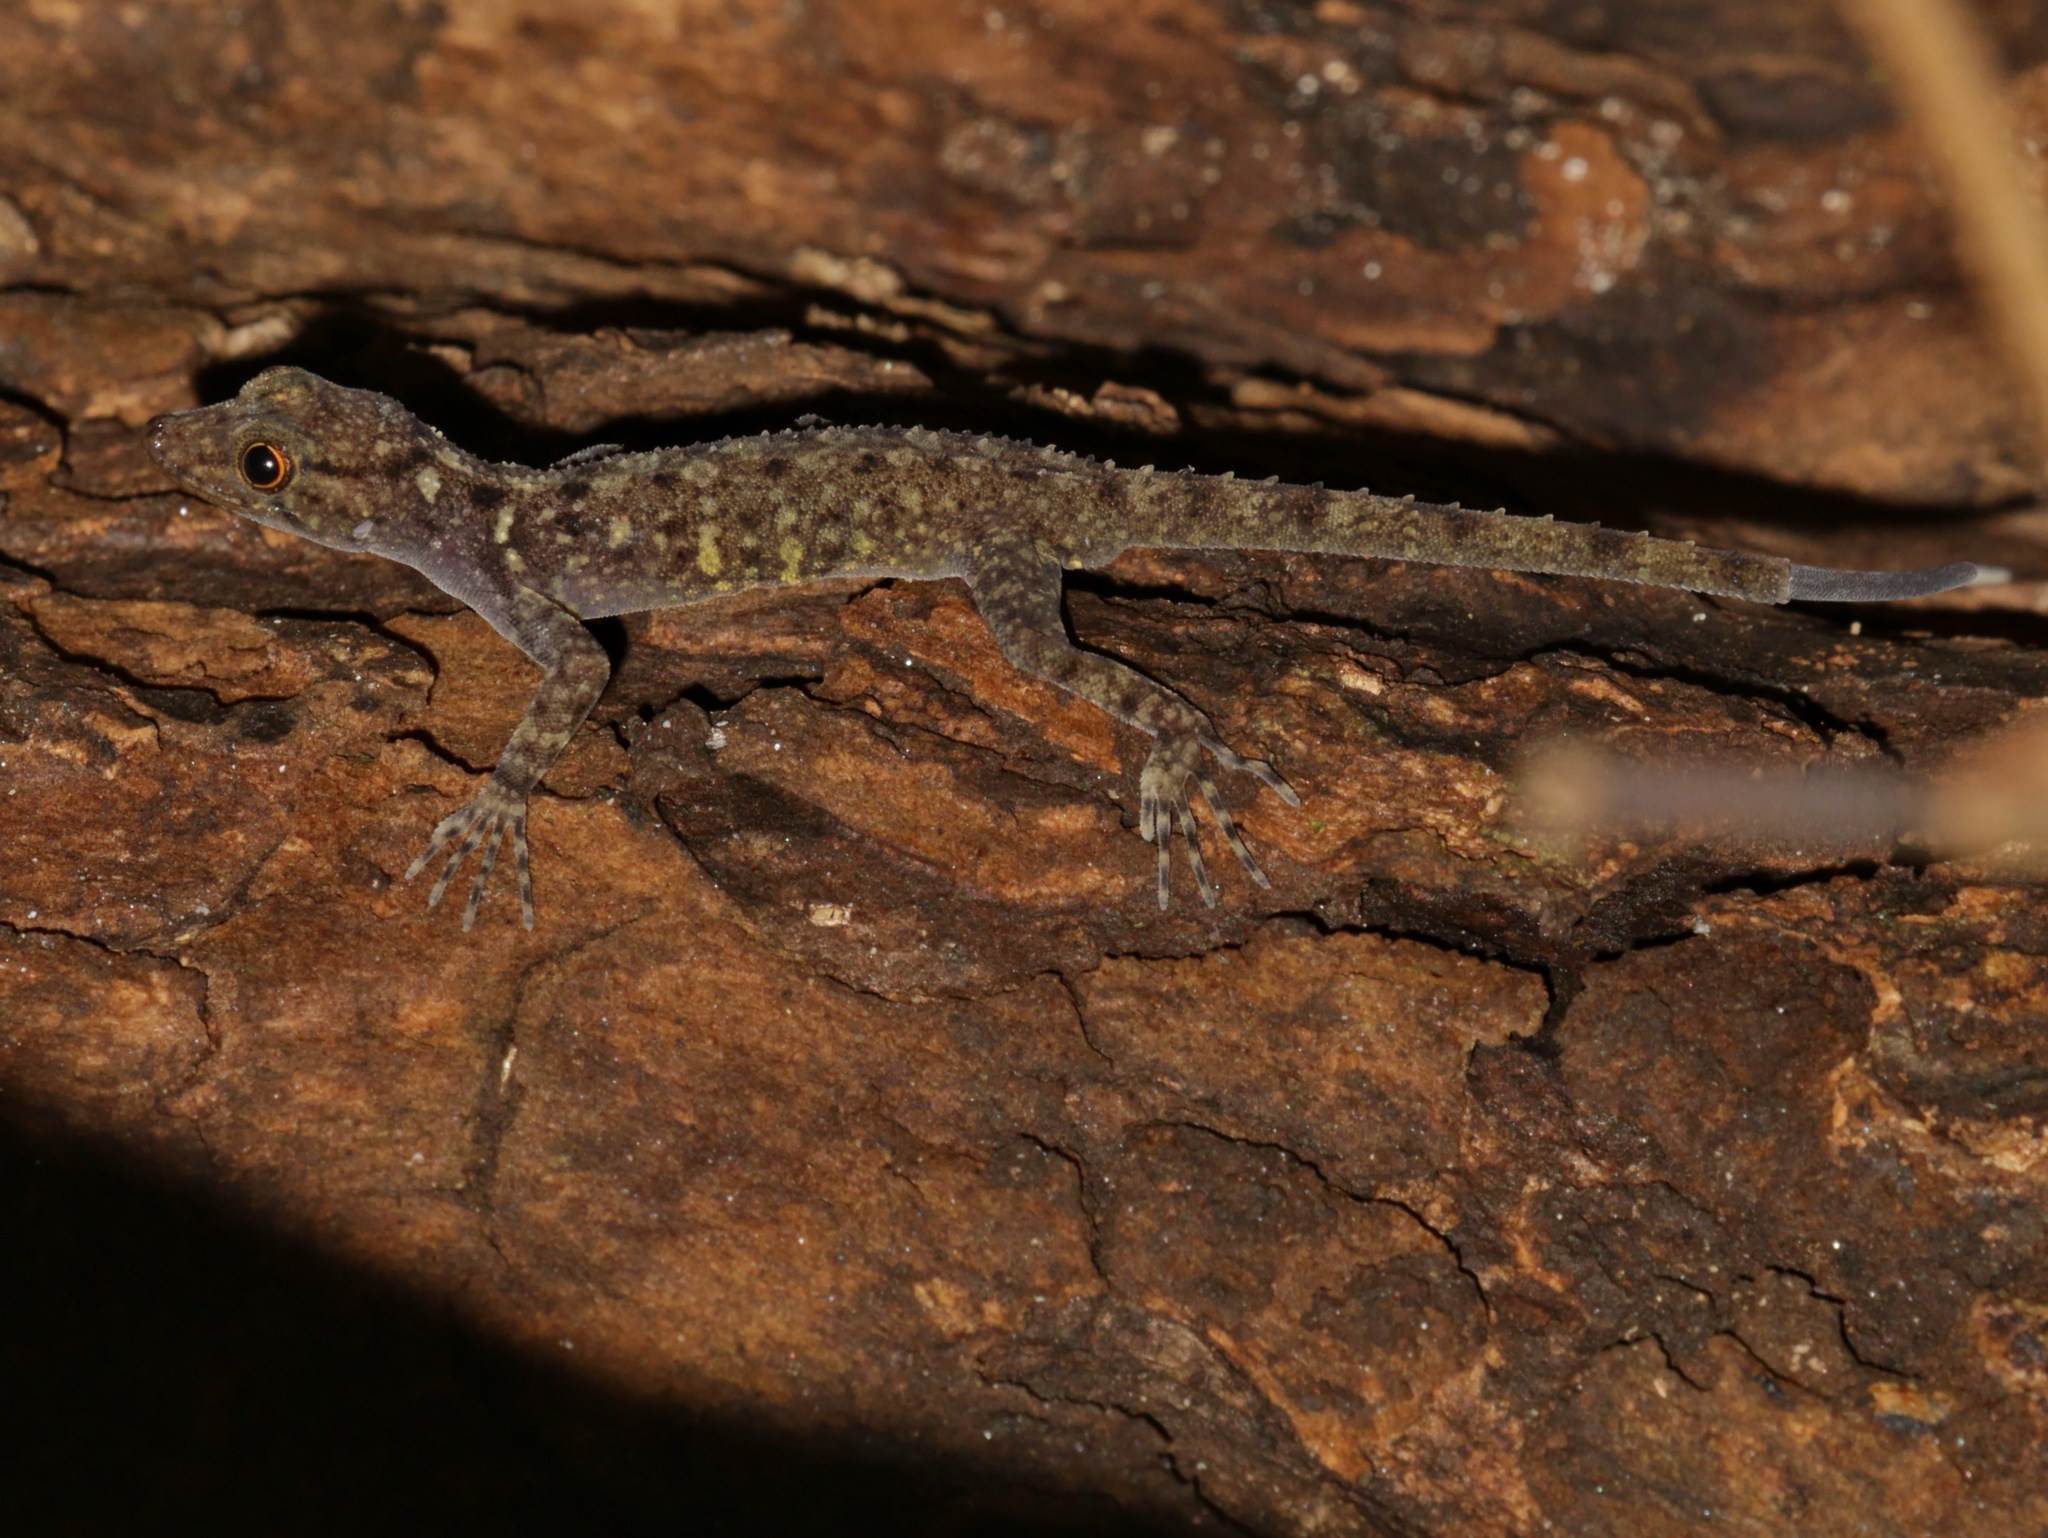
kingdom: Animalia
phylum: Chordata
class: Squamata
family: Gekkonidae
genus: Cnemaspis
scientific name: Cnemaspis kamolnorranathi
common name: Kamolnorranath’s rock gecko
